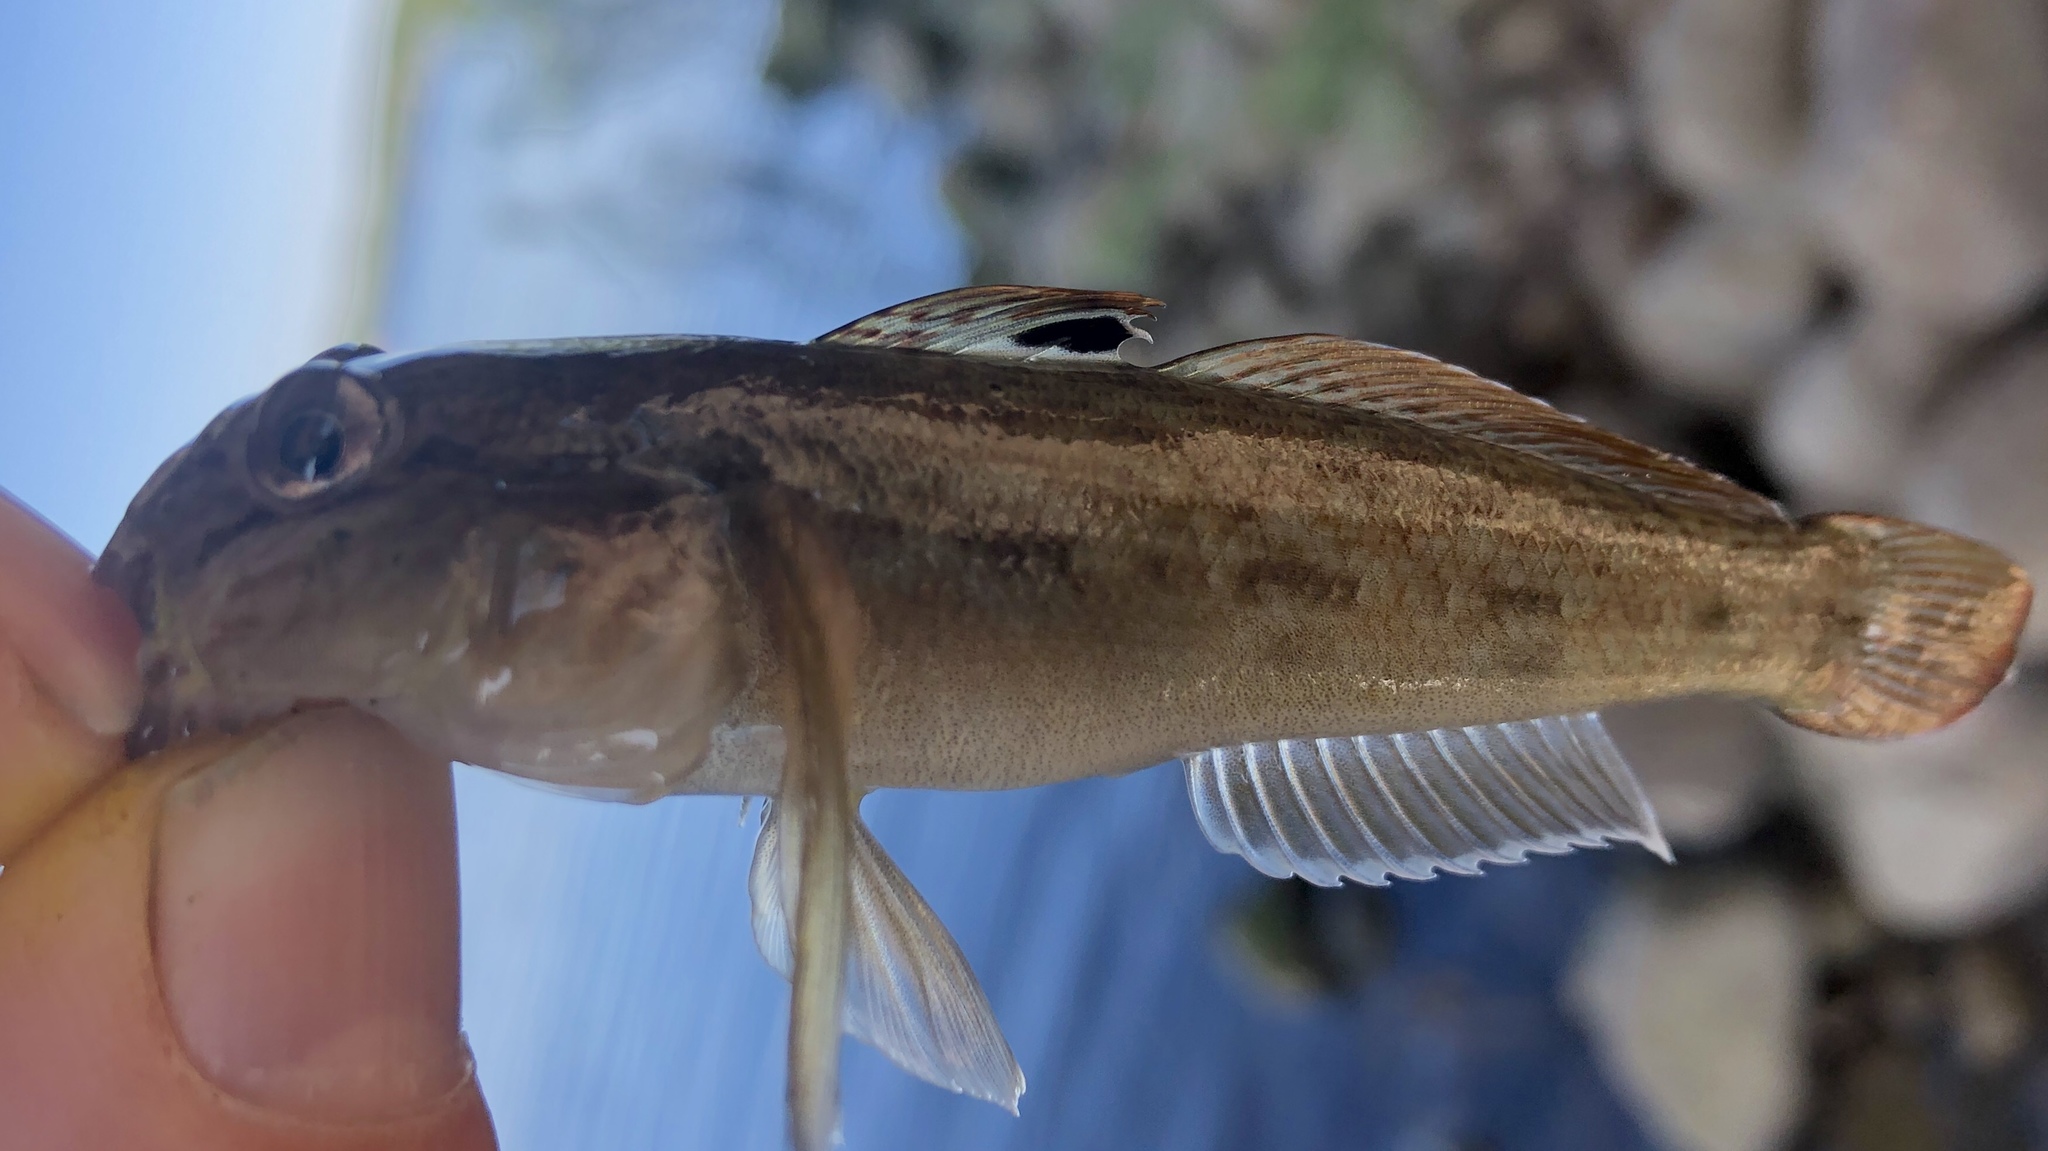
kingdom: Animalia
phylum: Chordata
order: Perciformes
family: Gobiidae
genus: Neogobius
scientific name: Neogobius melanostomus
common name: Round goby
